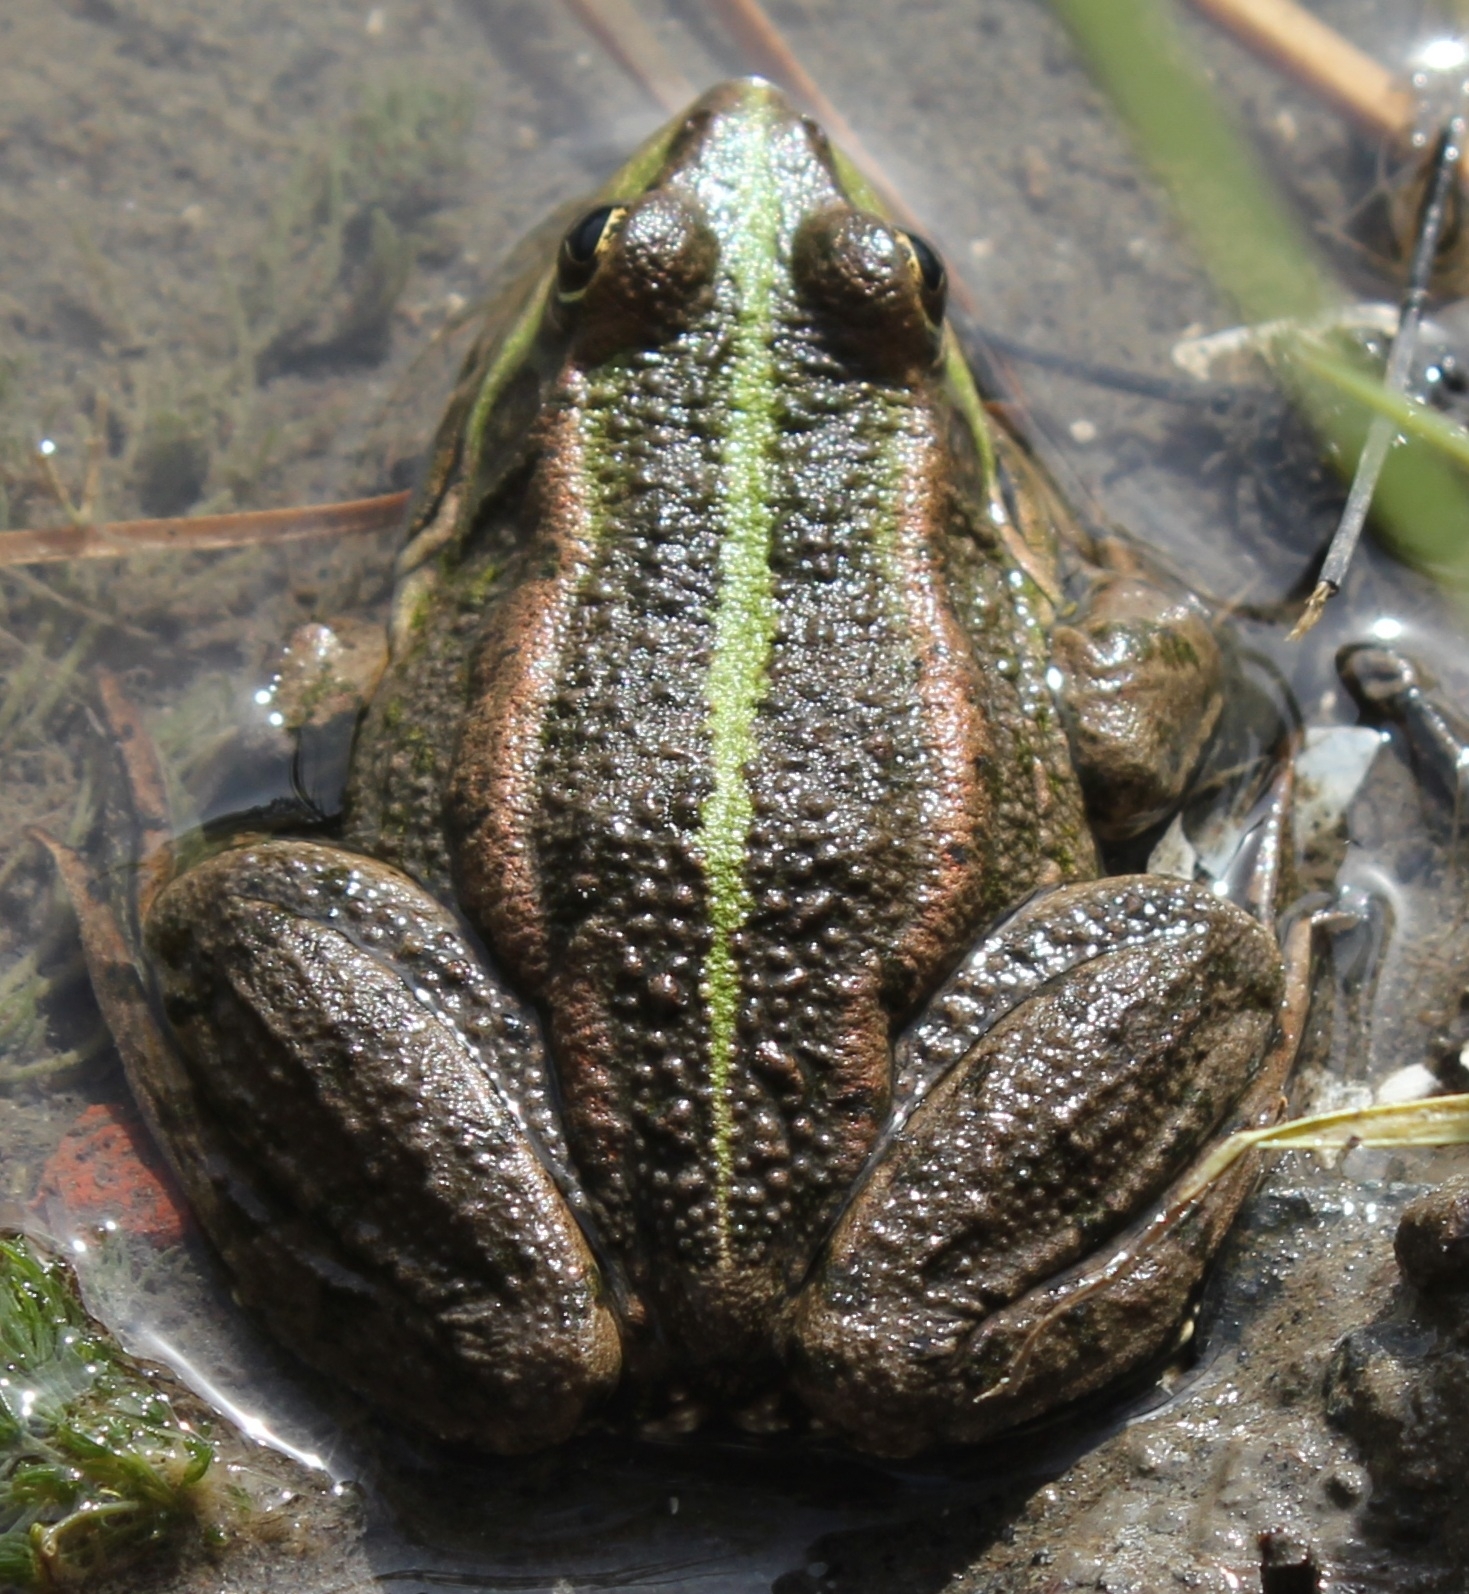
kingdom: Animalia
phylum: Chordata
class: Amphibia
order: Anura
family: Ranidae
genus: Pelophylax
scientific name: Pelophylax ridibundus
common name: Marsh frog
